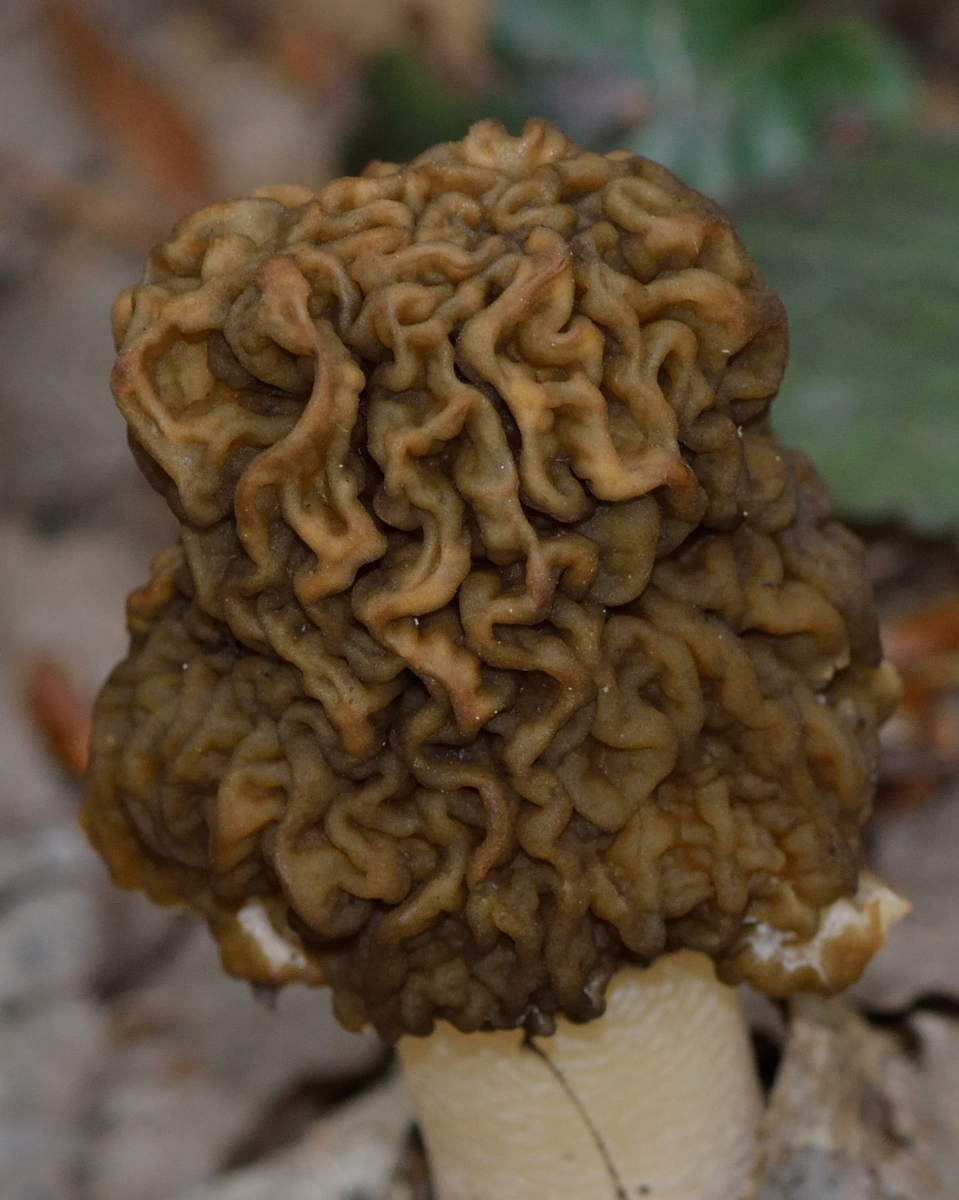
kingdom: Fungi
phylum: Ascomycota
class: Pezizomycetes
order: Pezizales
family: Morchellaceae
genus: Verpa
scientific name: Verpa bohemica
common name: Wrinkled thimble morel
